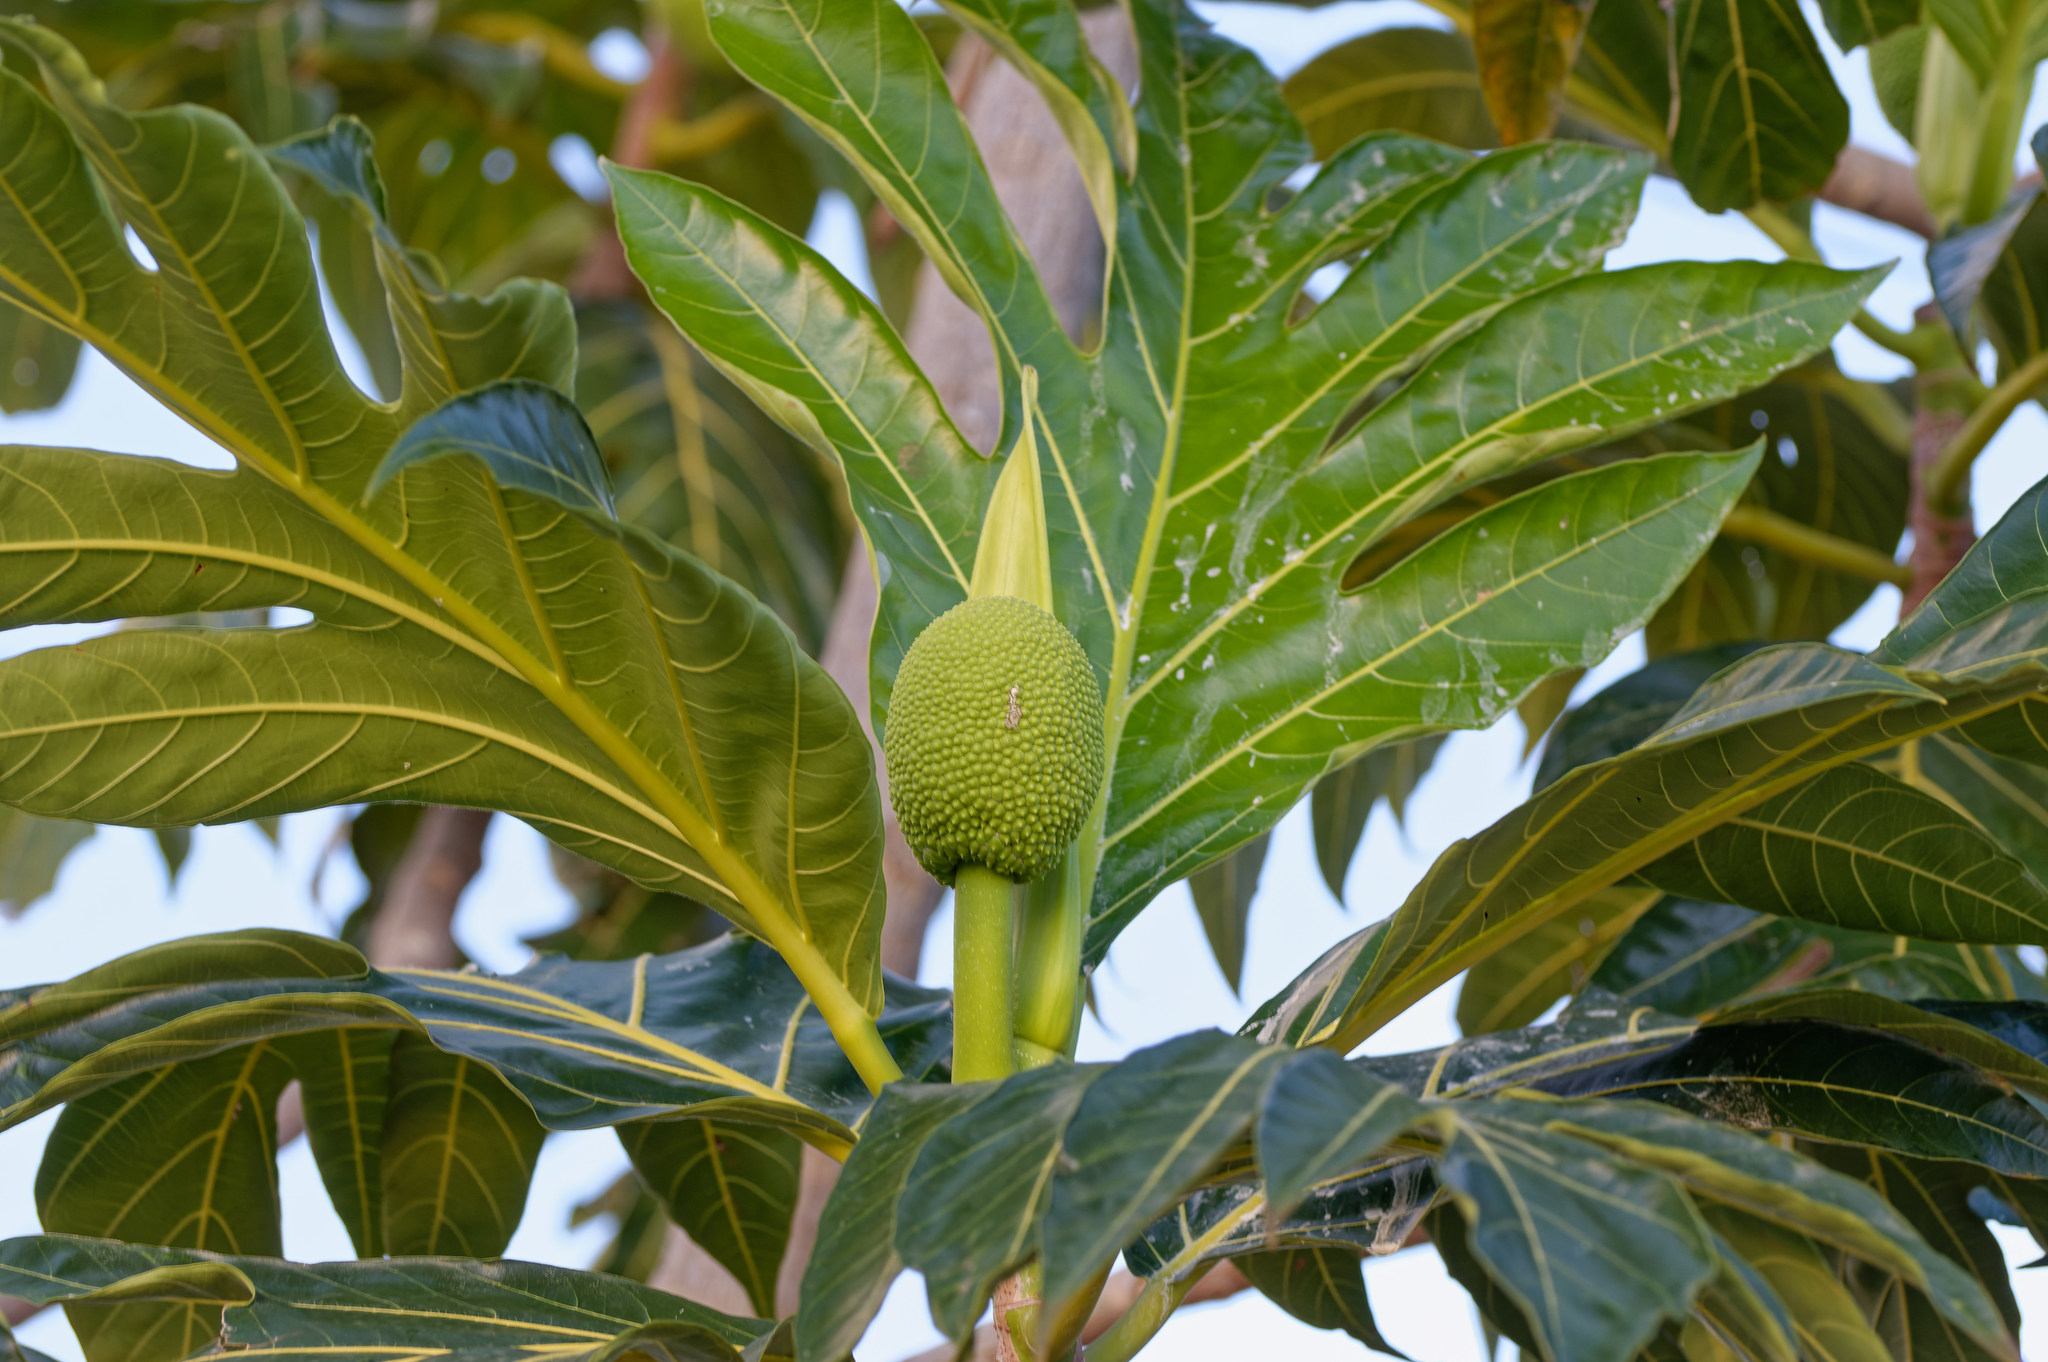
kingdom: Plantae
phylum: Tracheophyta
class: Magnoliopsida
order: Rosales
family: Moraceae
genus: Artocarpus
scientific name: Artocarpus altilis
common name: Breadfruit
